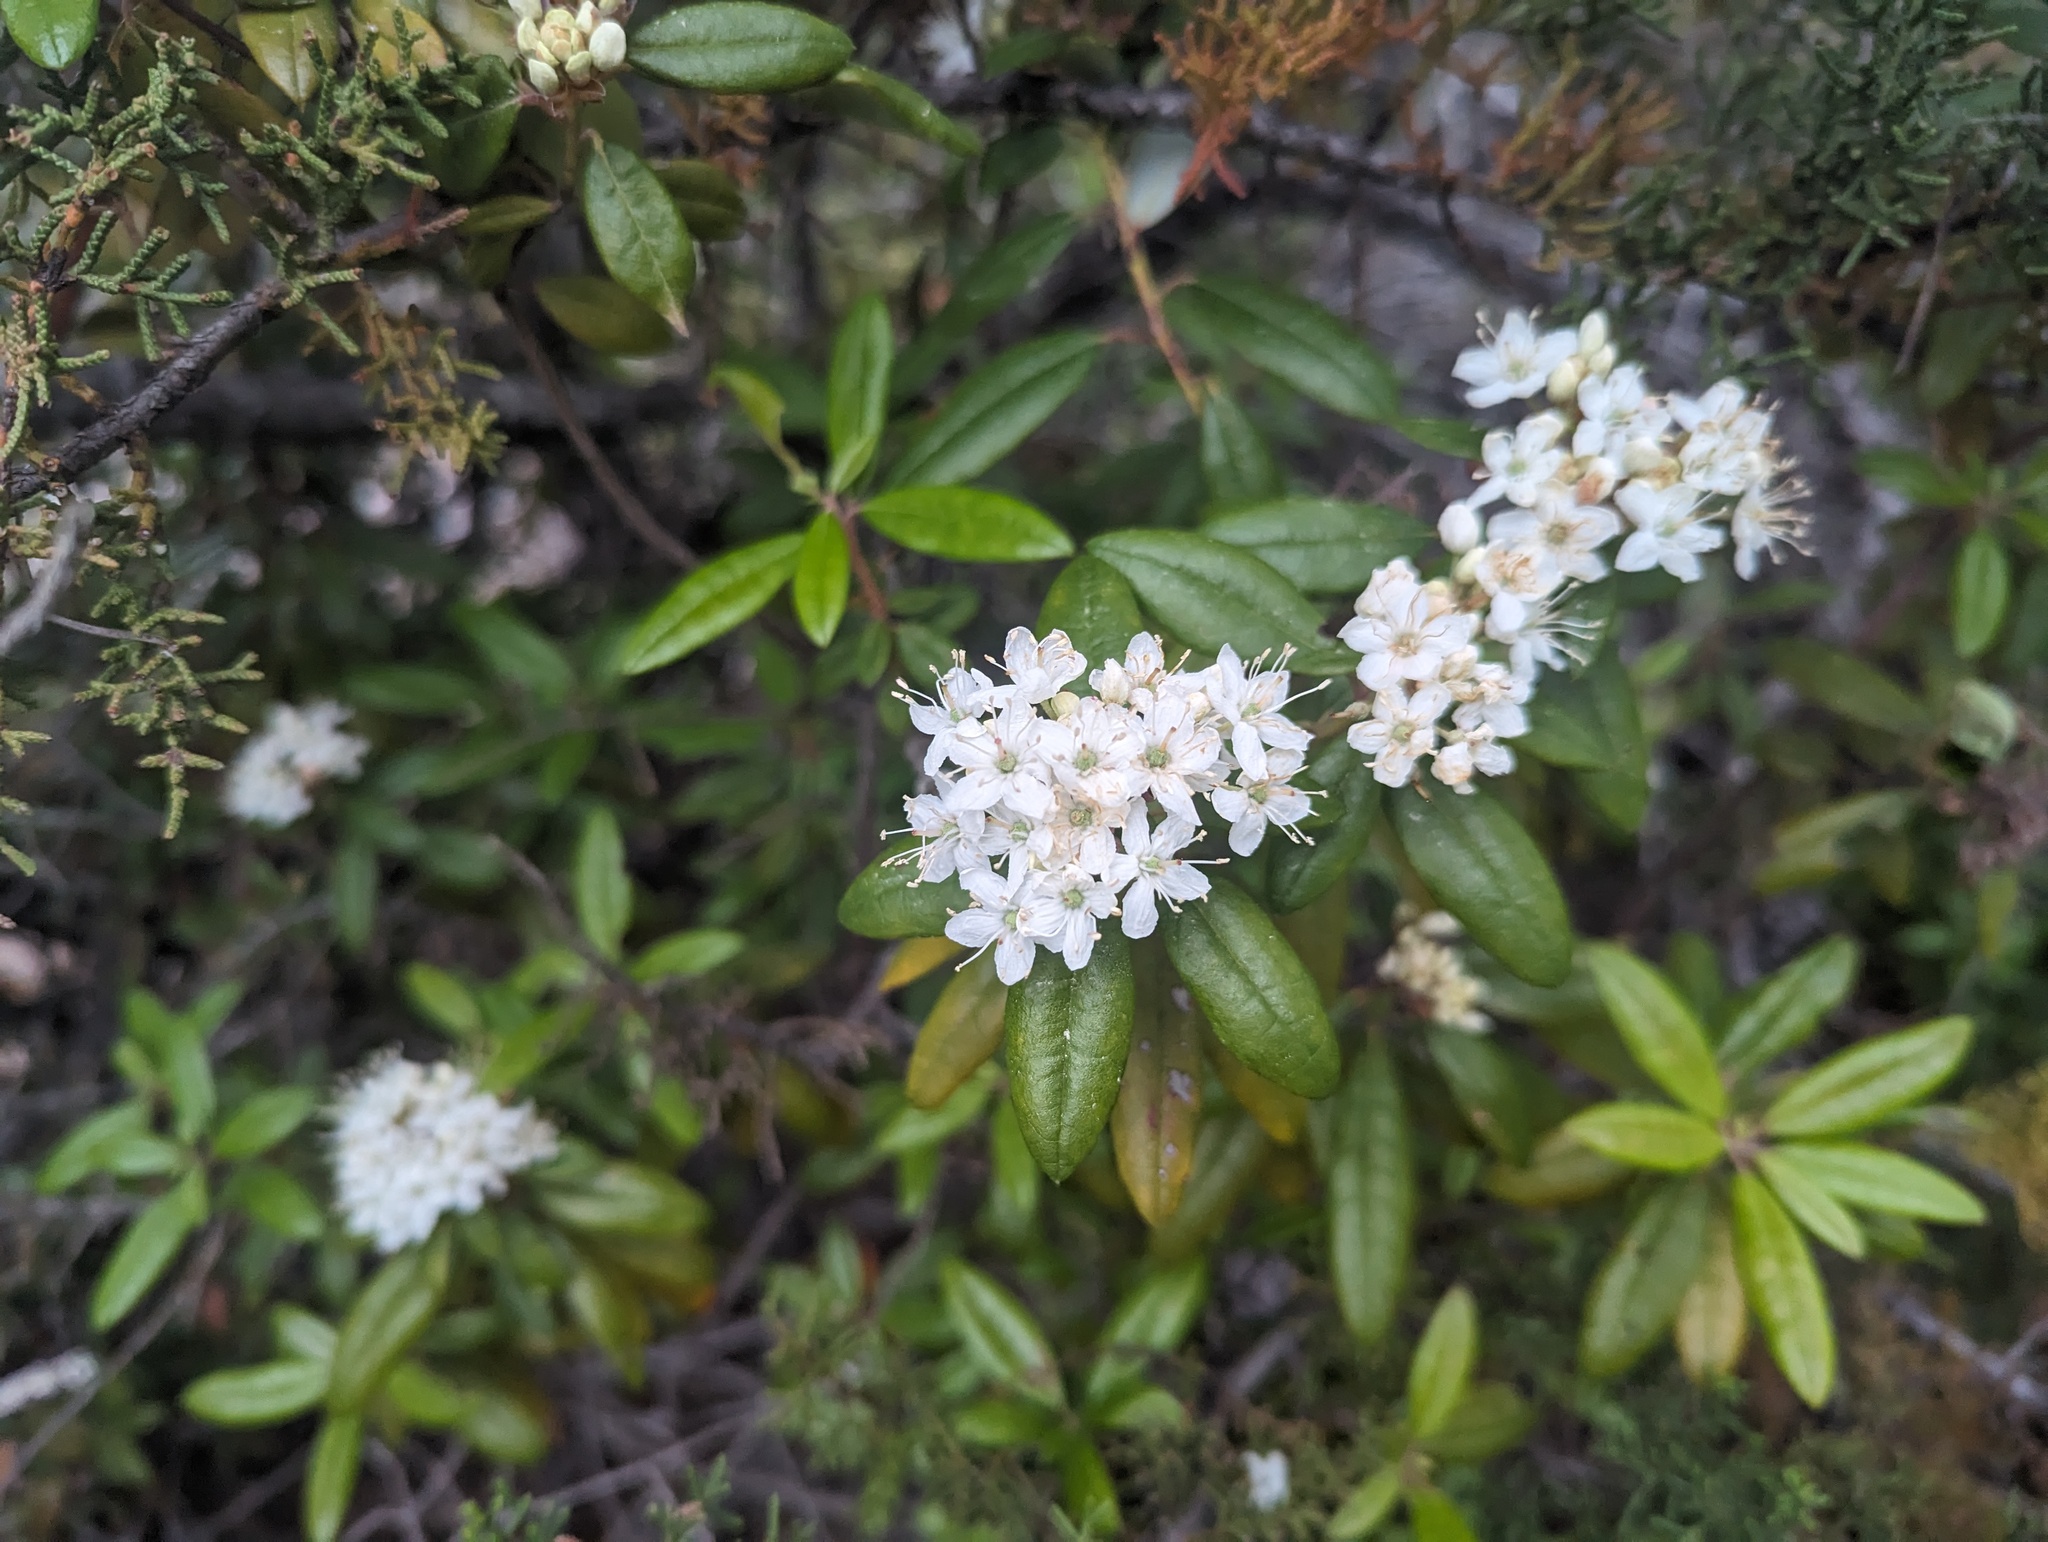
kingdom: Plantae
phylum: Tracheophyta
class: Magnoliopsida
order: Ericales
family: Ericaceae
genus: Rhododendron
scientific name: Rhododendron columbianum
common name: Western labrador tea
